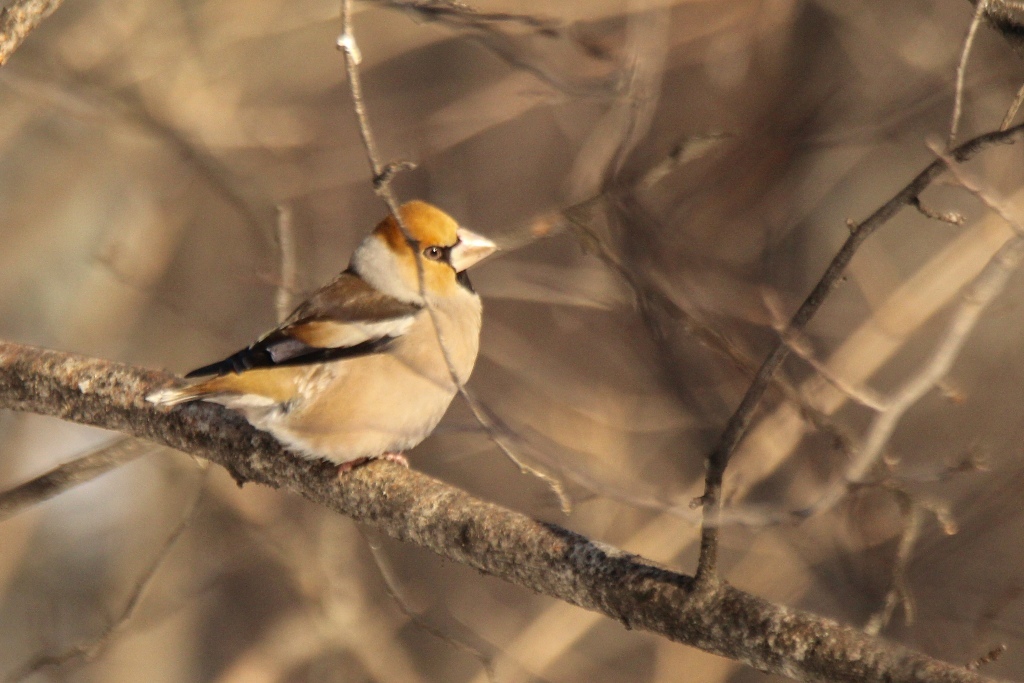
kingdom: Animalia
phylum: Chordata
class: Aves
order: Passeriformes
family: Fringillidae
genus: Coccothraustes
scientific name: Coccothraustes coccothraustes
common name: Hawfinch
